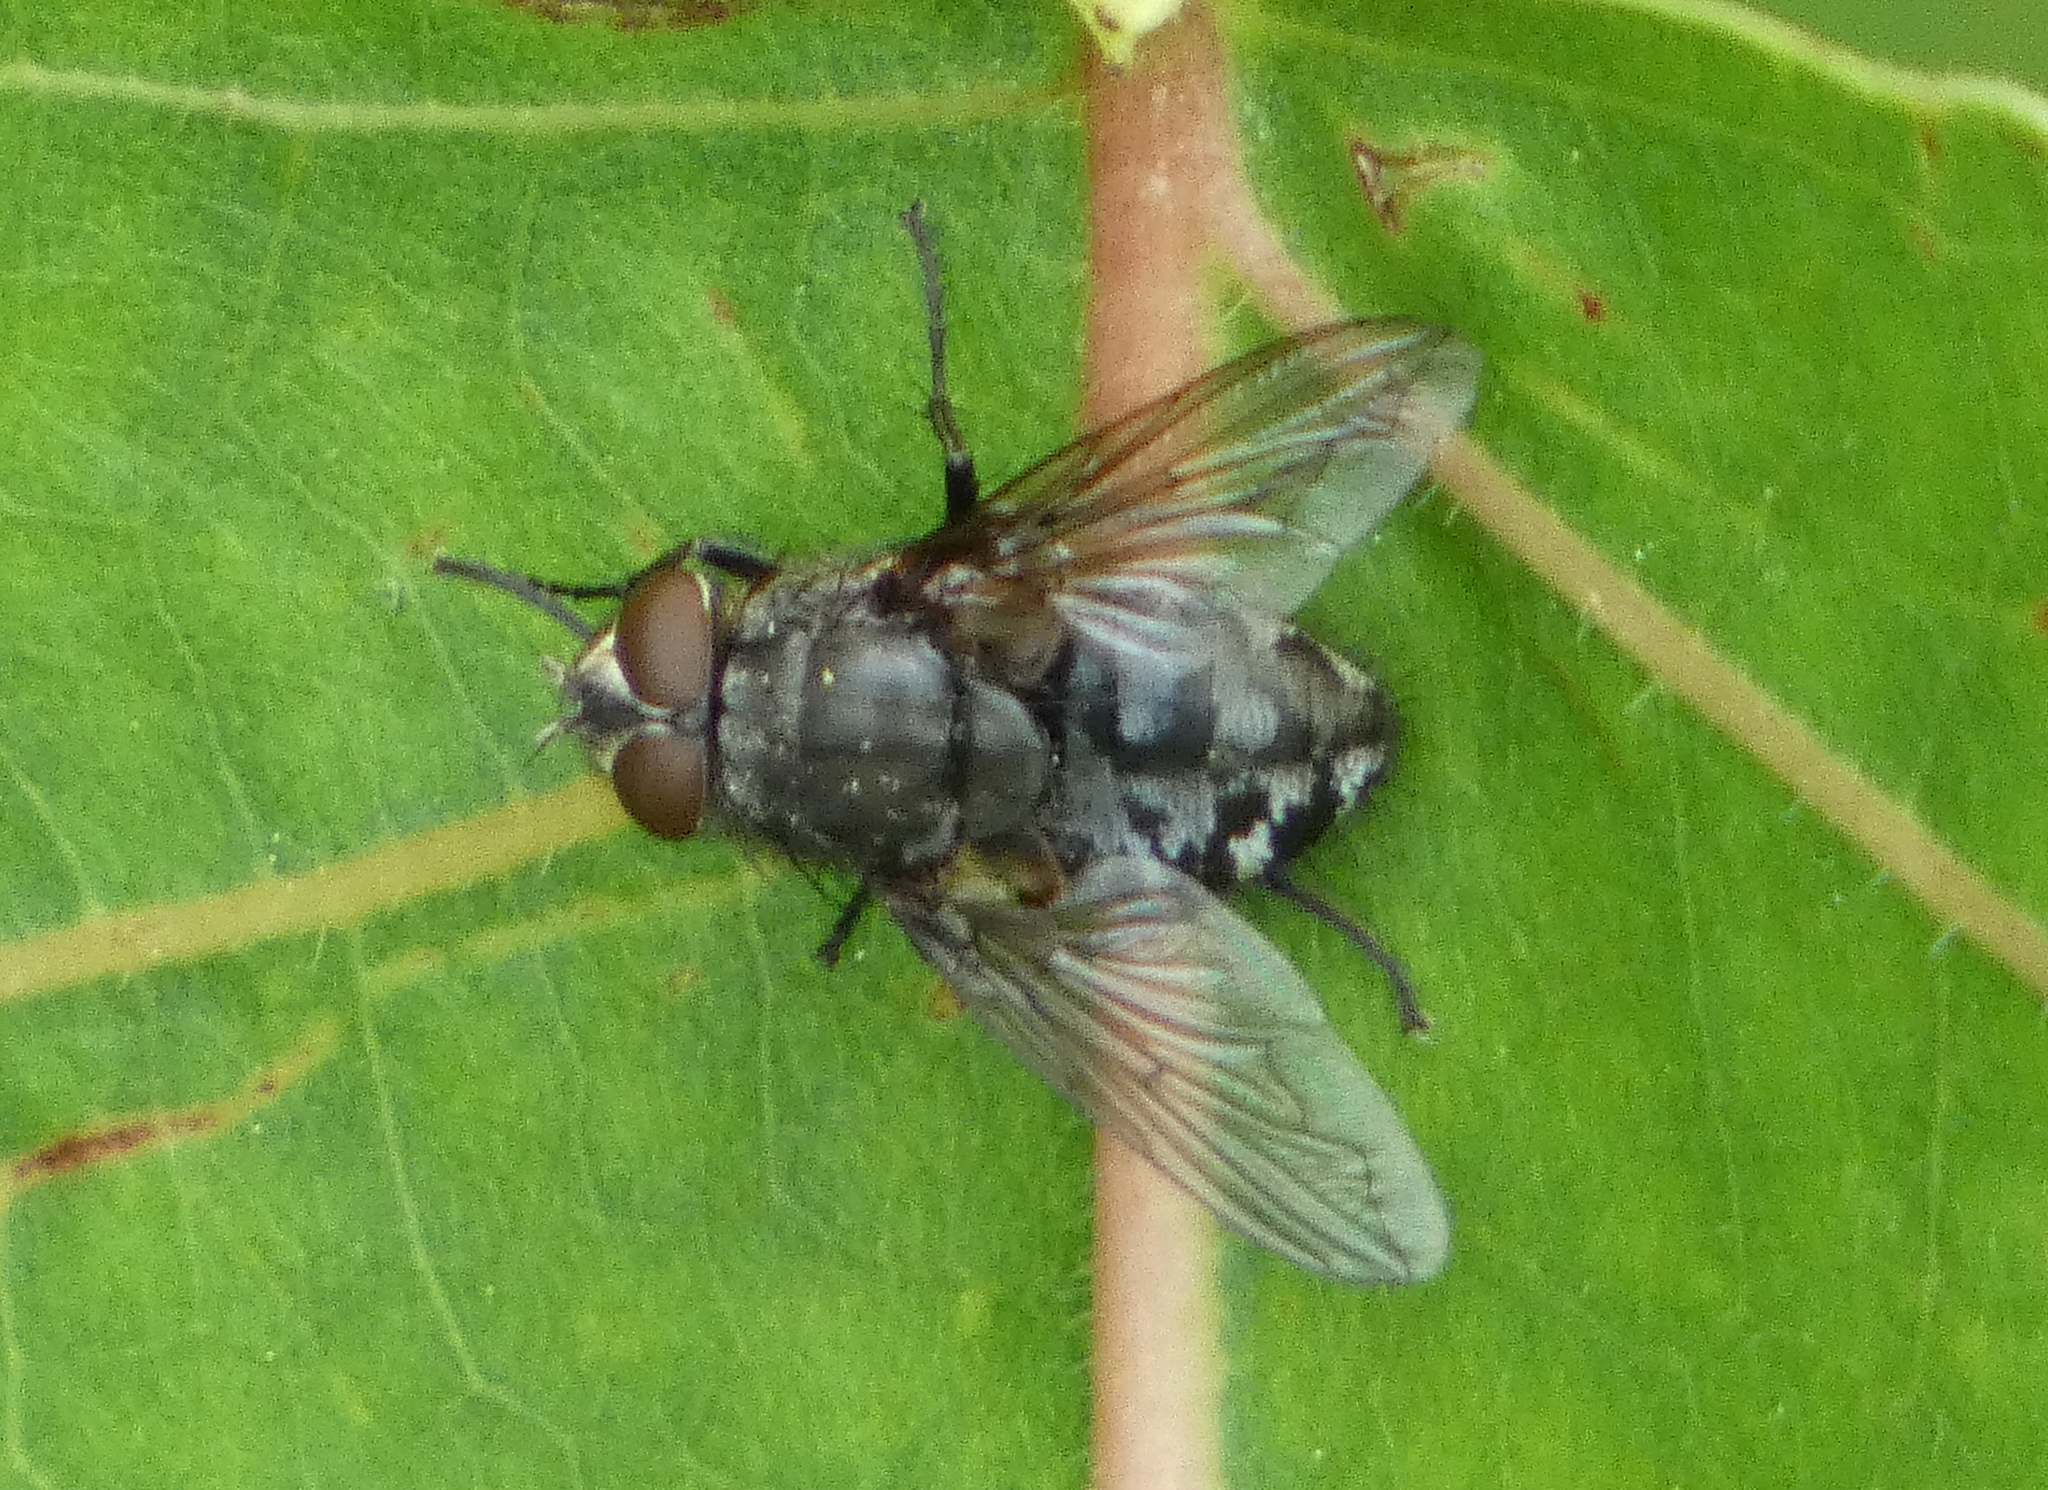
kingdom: Animalia
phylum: Arthropoda
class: Insecta
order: Diptera
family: Polleniidae
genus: Pollenia
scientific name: Pollenia
